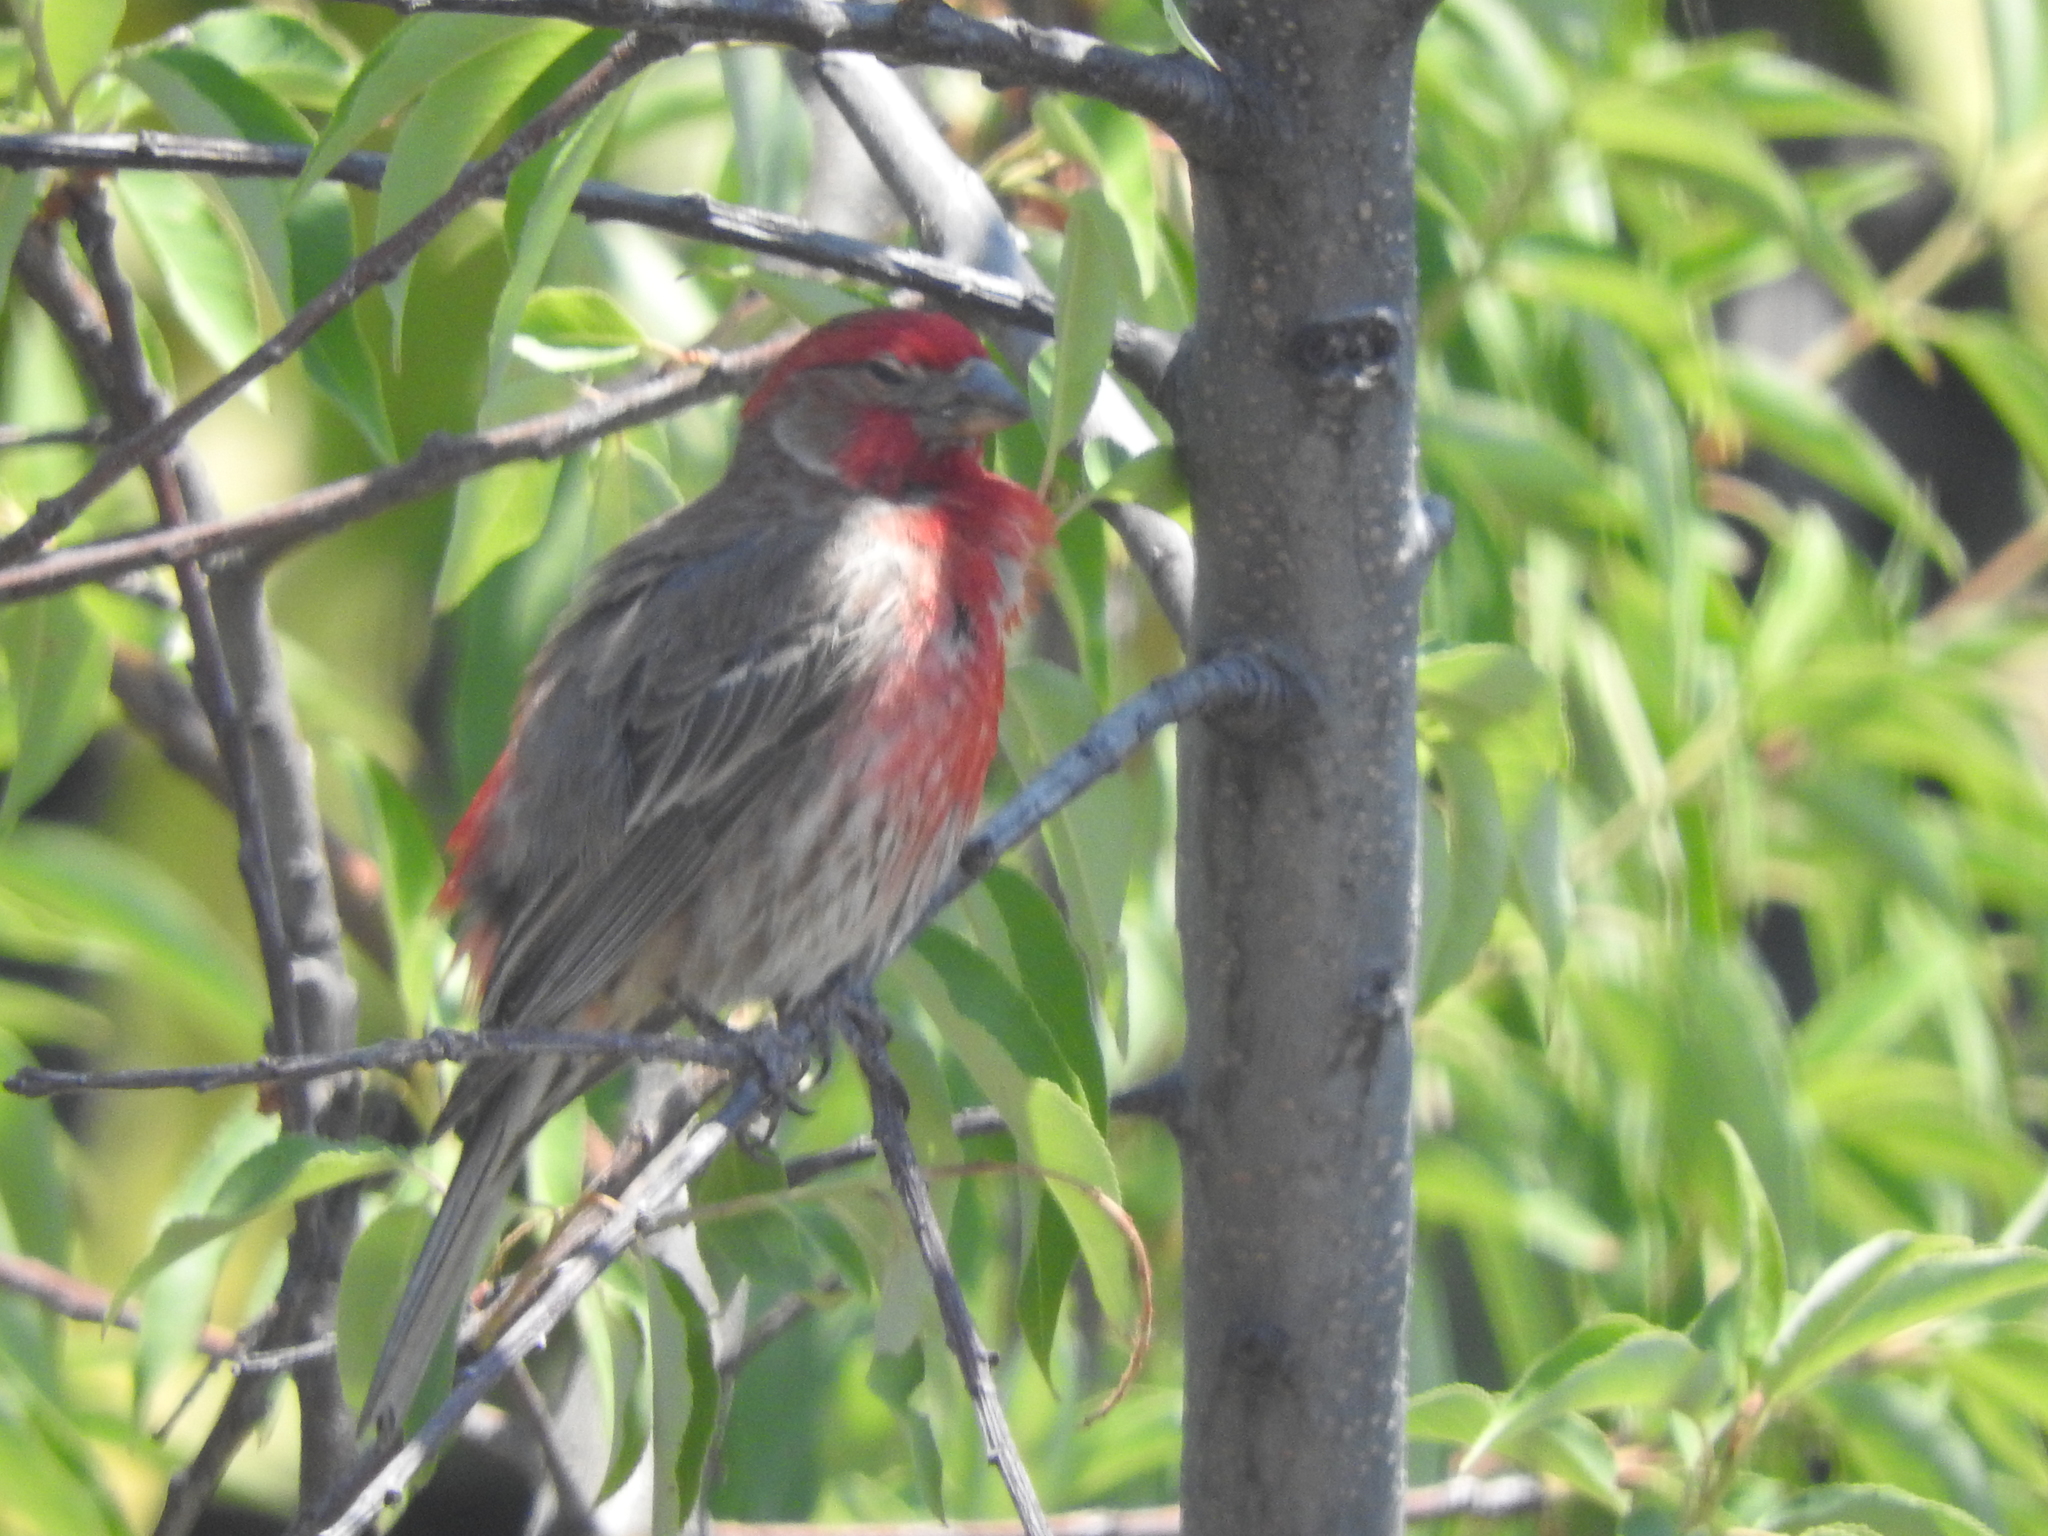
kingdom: Animalia
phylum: Chordata
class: Aves
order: Passeriformes
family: Fringillidae
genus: Haemorhous
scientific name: Haemorhous mexicanus
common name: House finch
